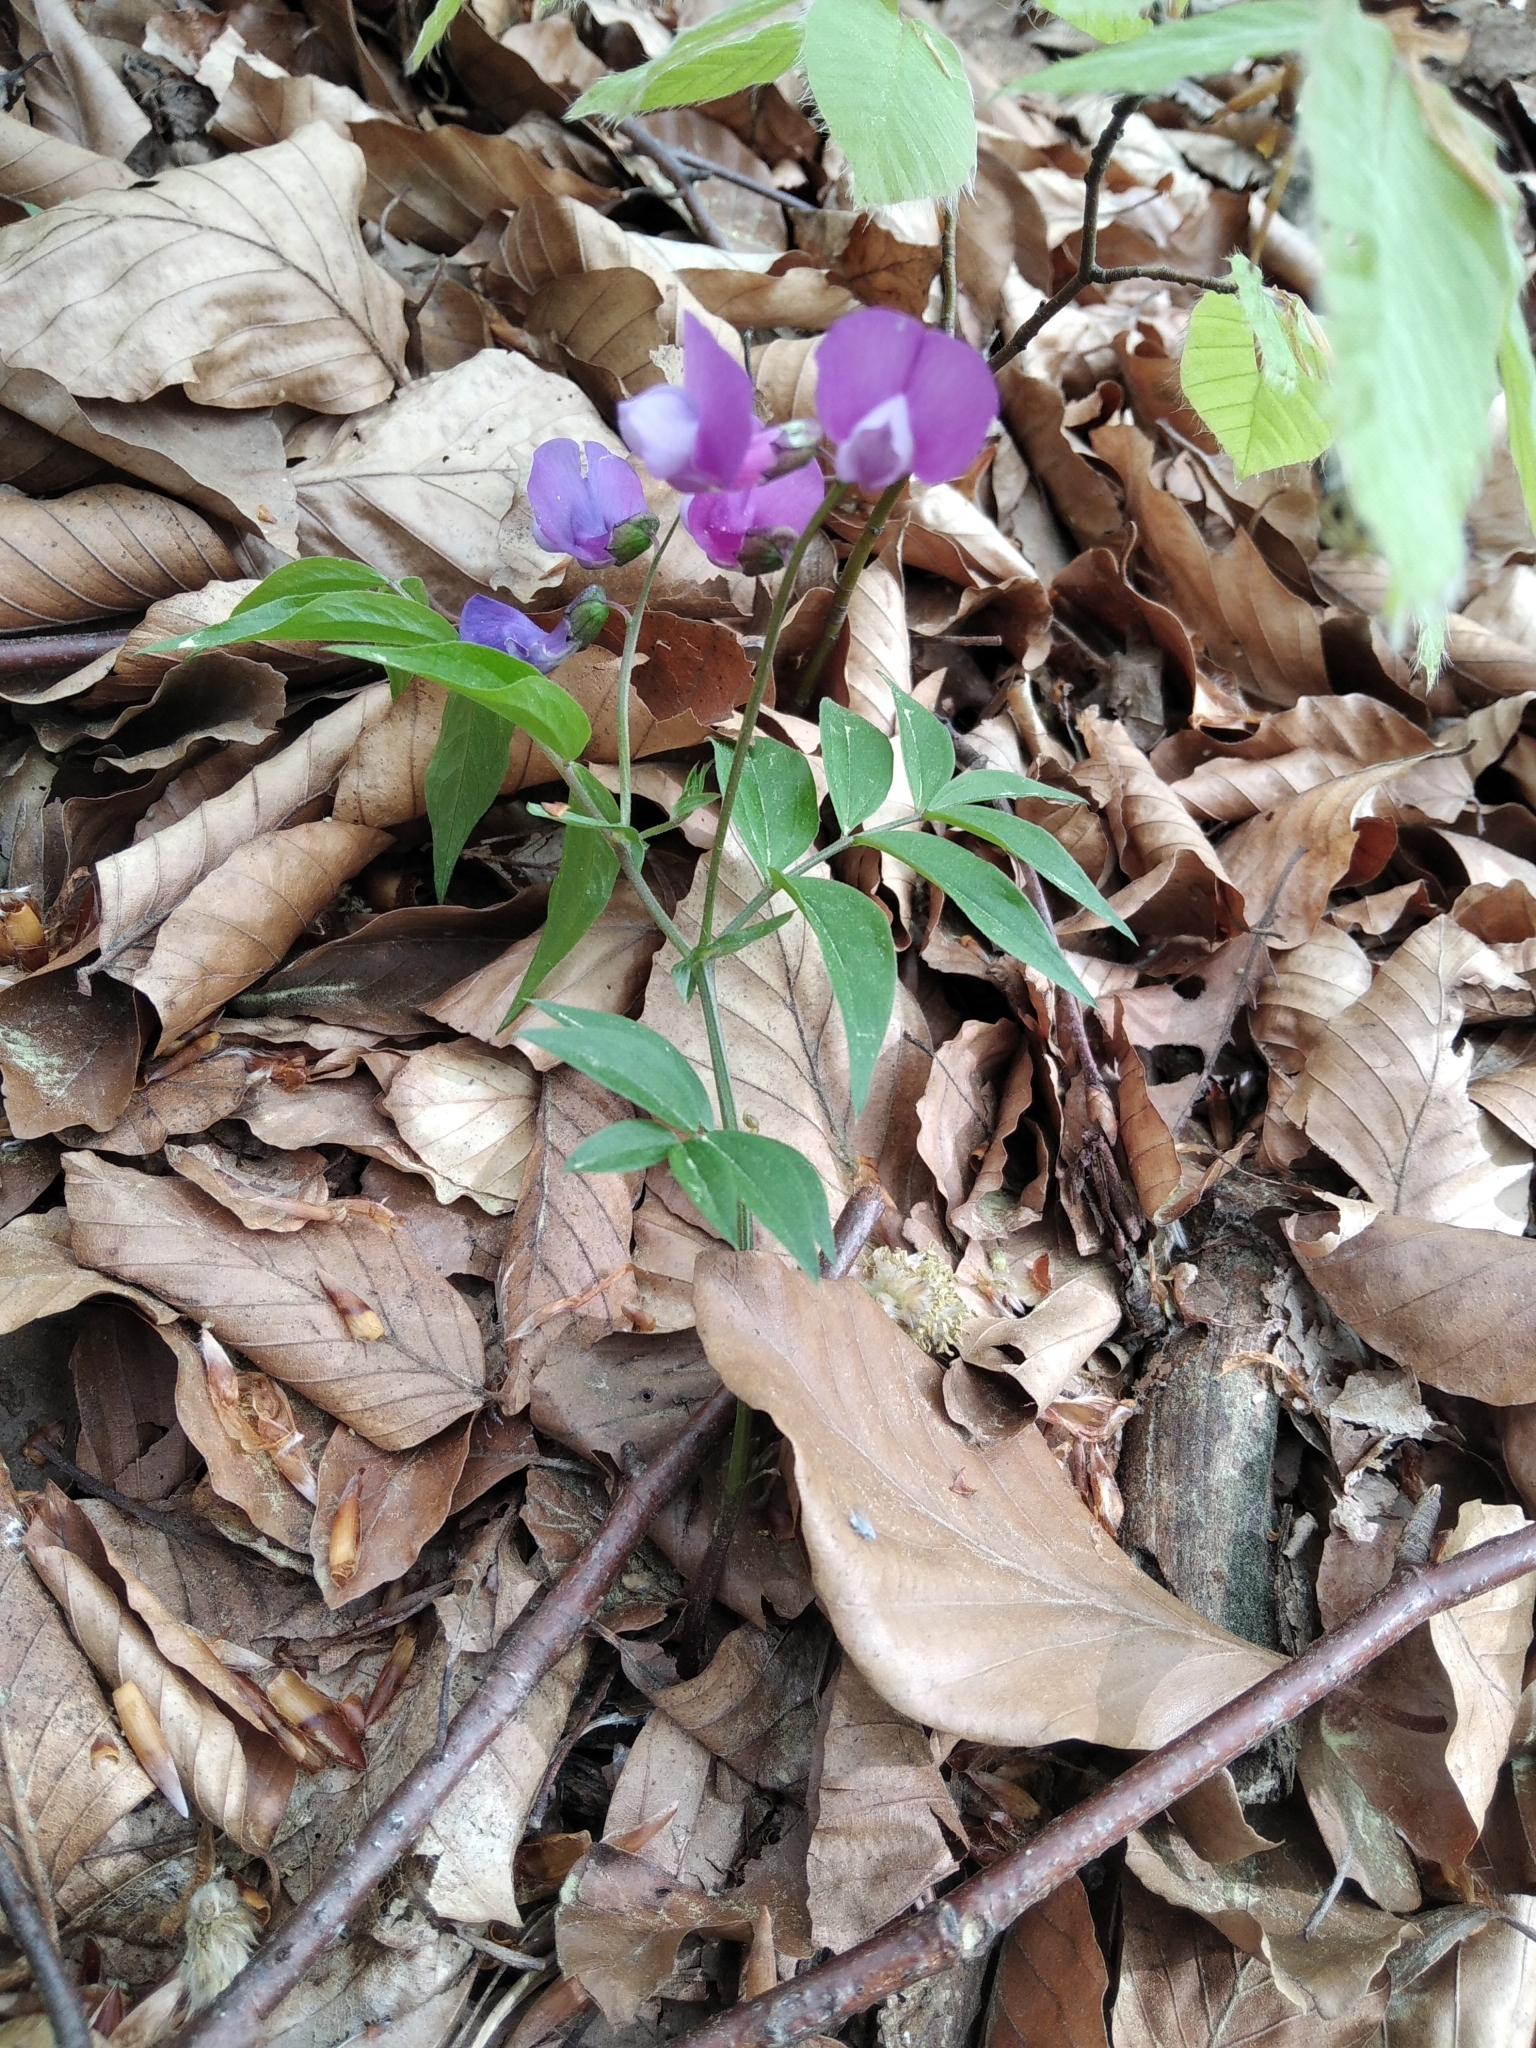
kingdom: Plantae
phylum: Tracheophyta
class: Magnoliopsida
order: Fabales
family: Fabaceae
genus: Lathyrus
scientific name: Lathyrus vernus
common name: Spring pea
